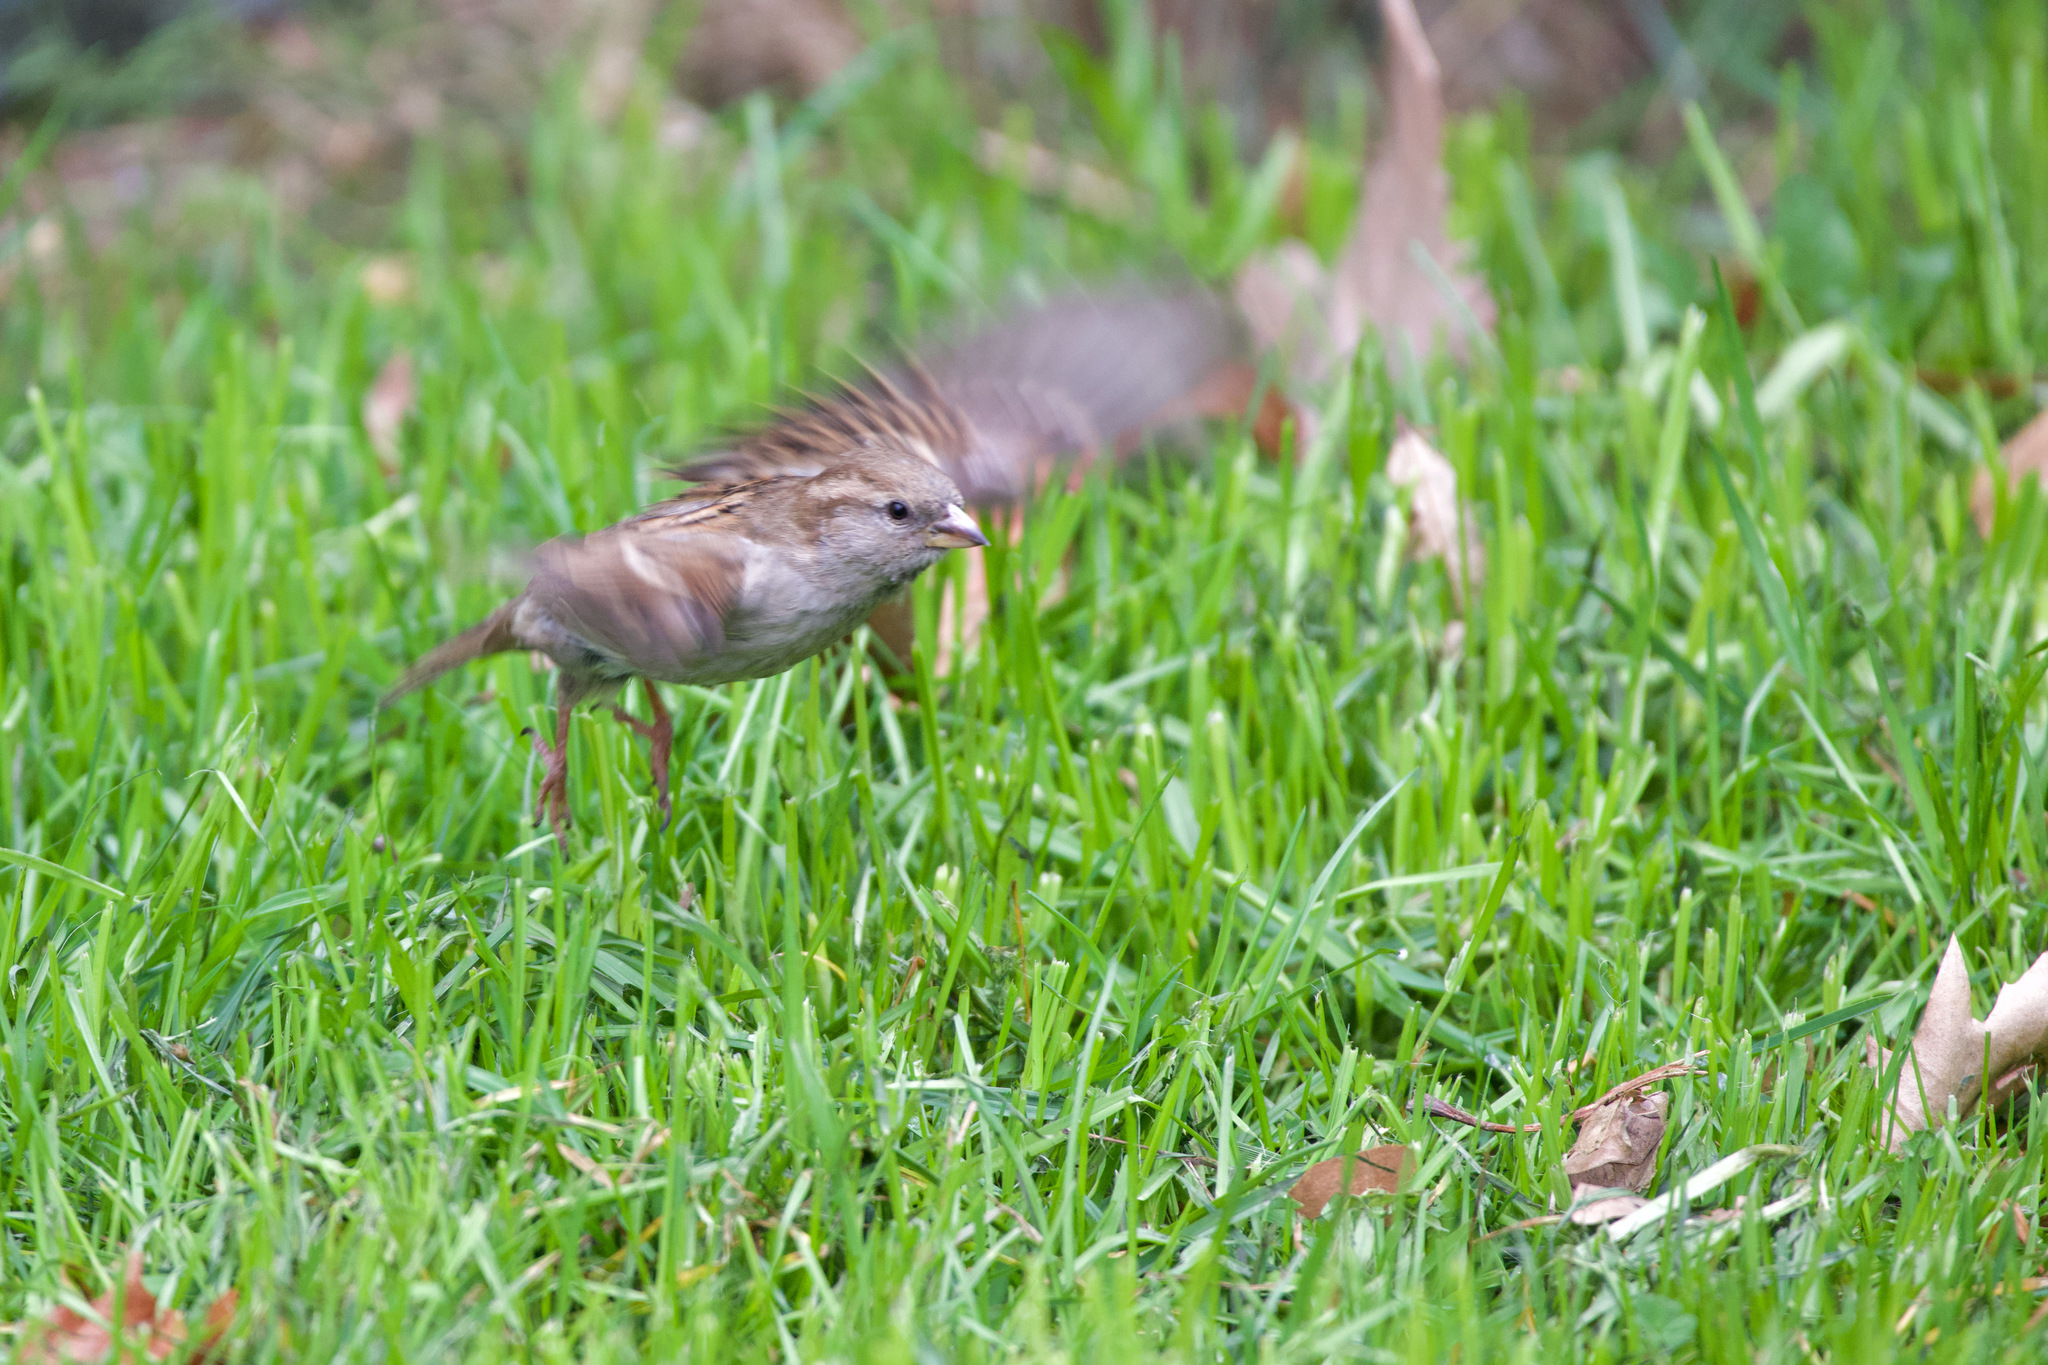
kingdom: Animalia
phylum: Chordata
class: Aves
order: Passeriformes
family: Passeridae
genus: Passer
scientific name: Passer domesticus
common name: House sparrow
